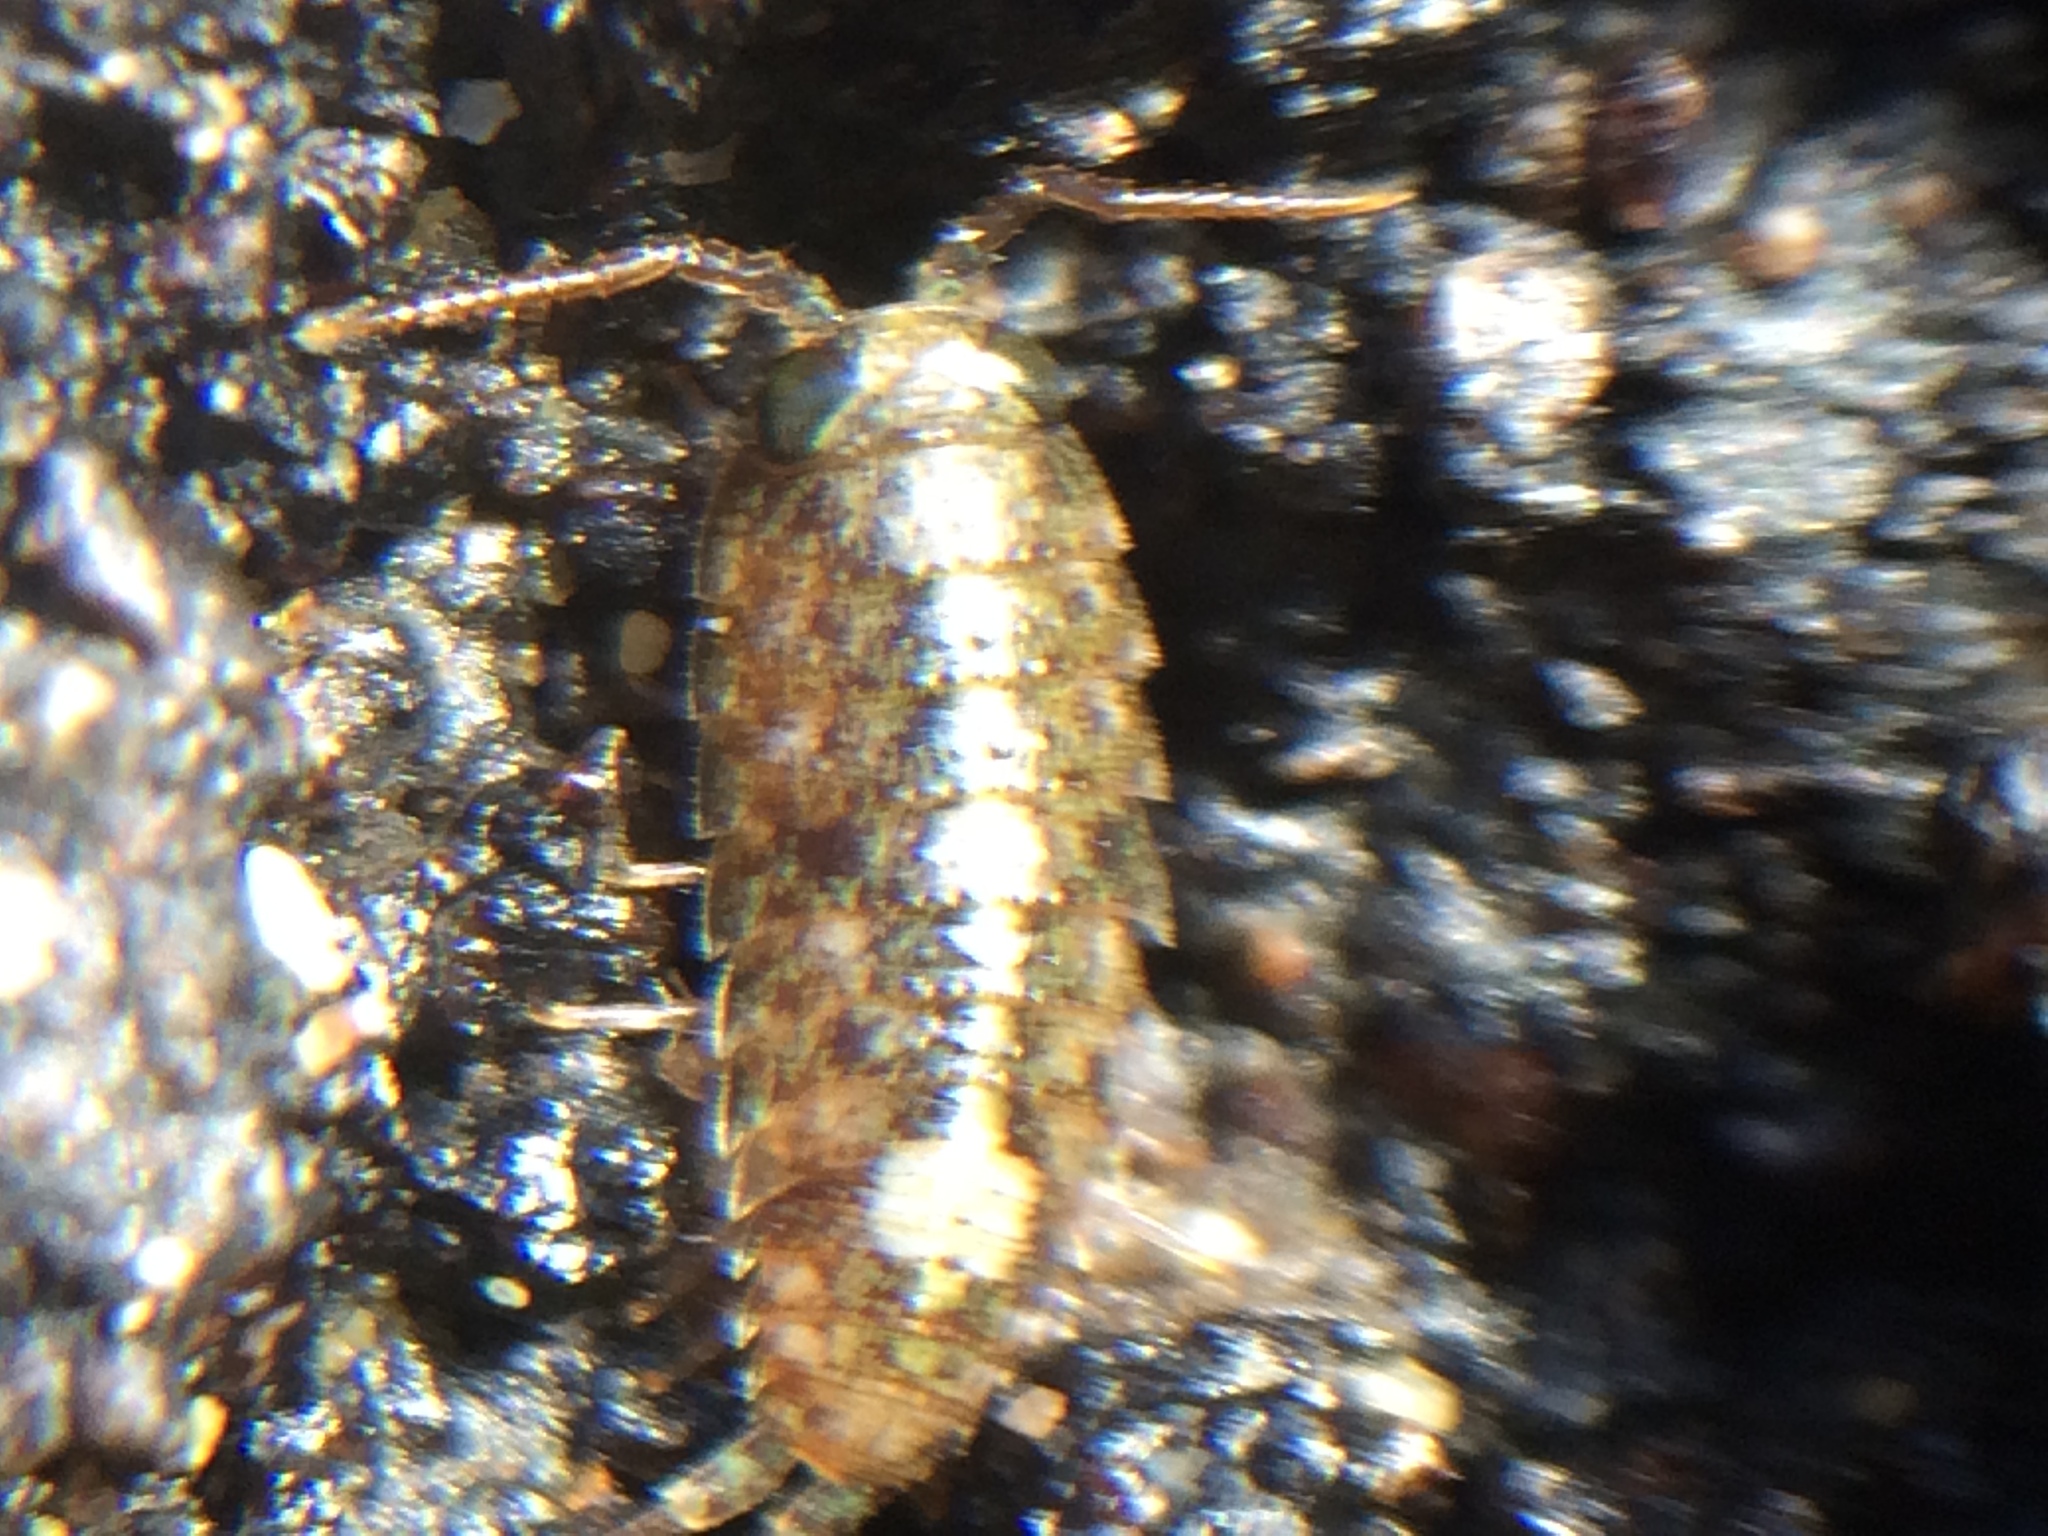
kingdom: Animalia
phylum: Arthropoda
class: Malacostraca
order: Isopoda
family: Ligiidae
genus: Ligia
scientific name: Ligia occidentalis
